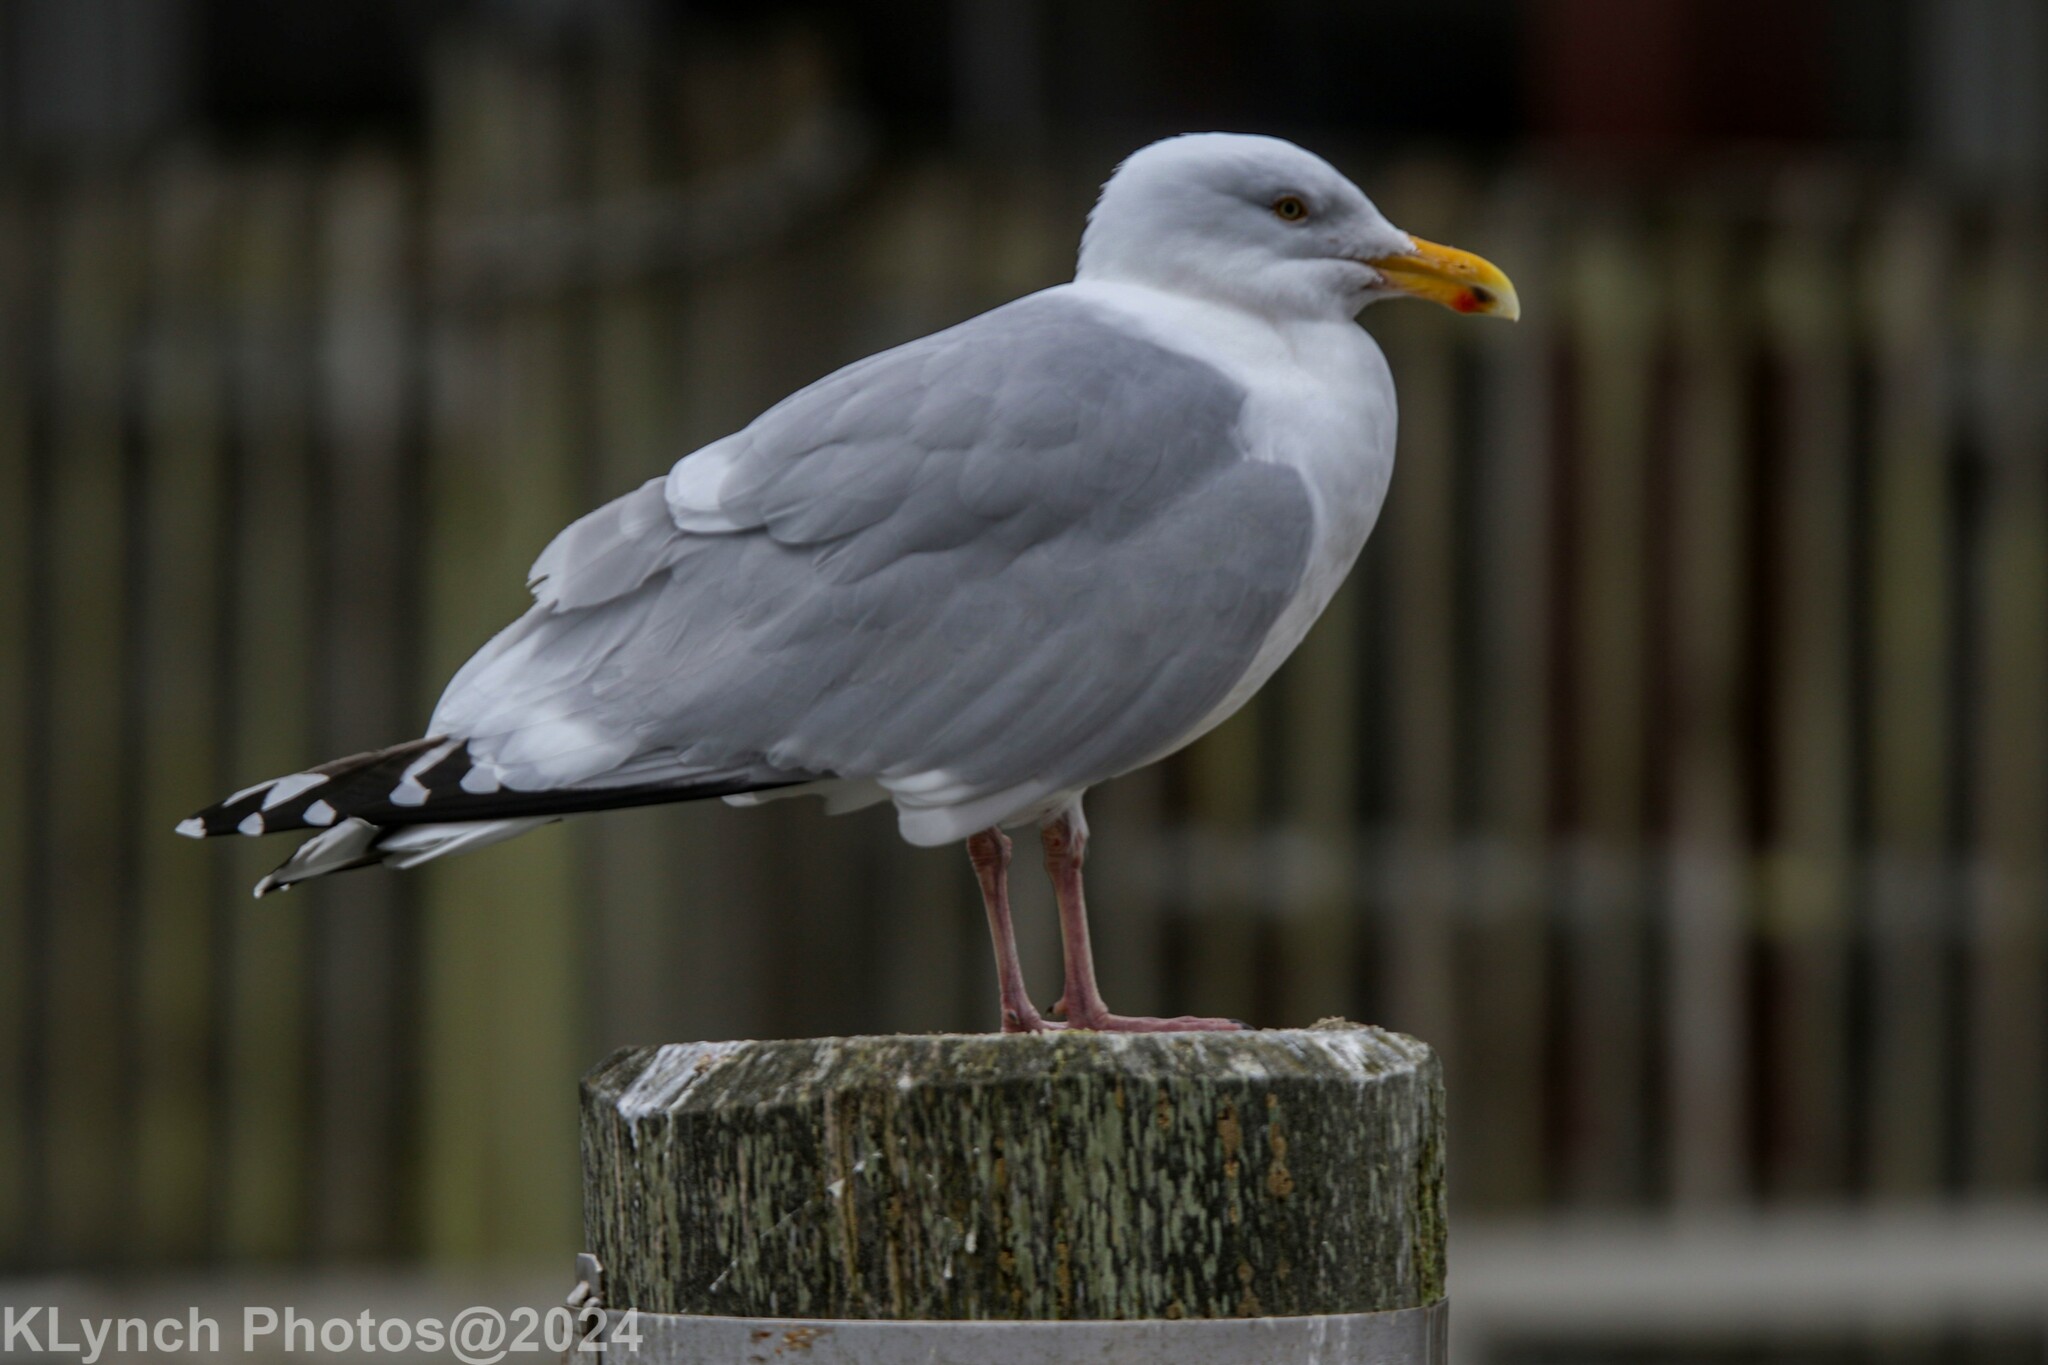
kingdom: Animalia
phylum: Chordata
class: Aves
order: Charadriiformes
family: Laridae
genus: Larus
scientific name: Larus argentatus
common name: Herring gull
